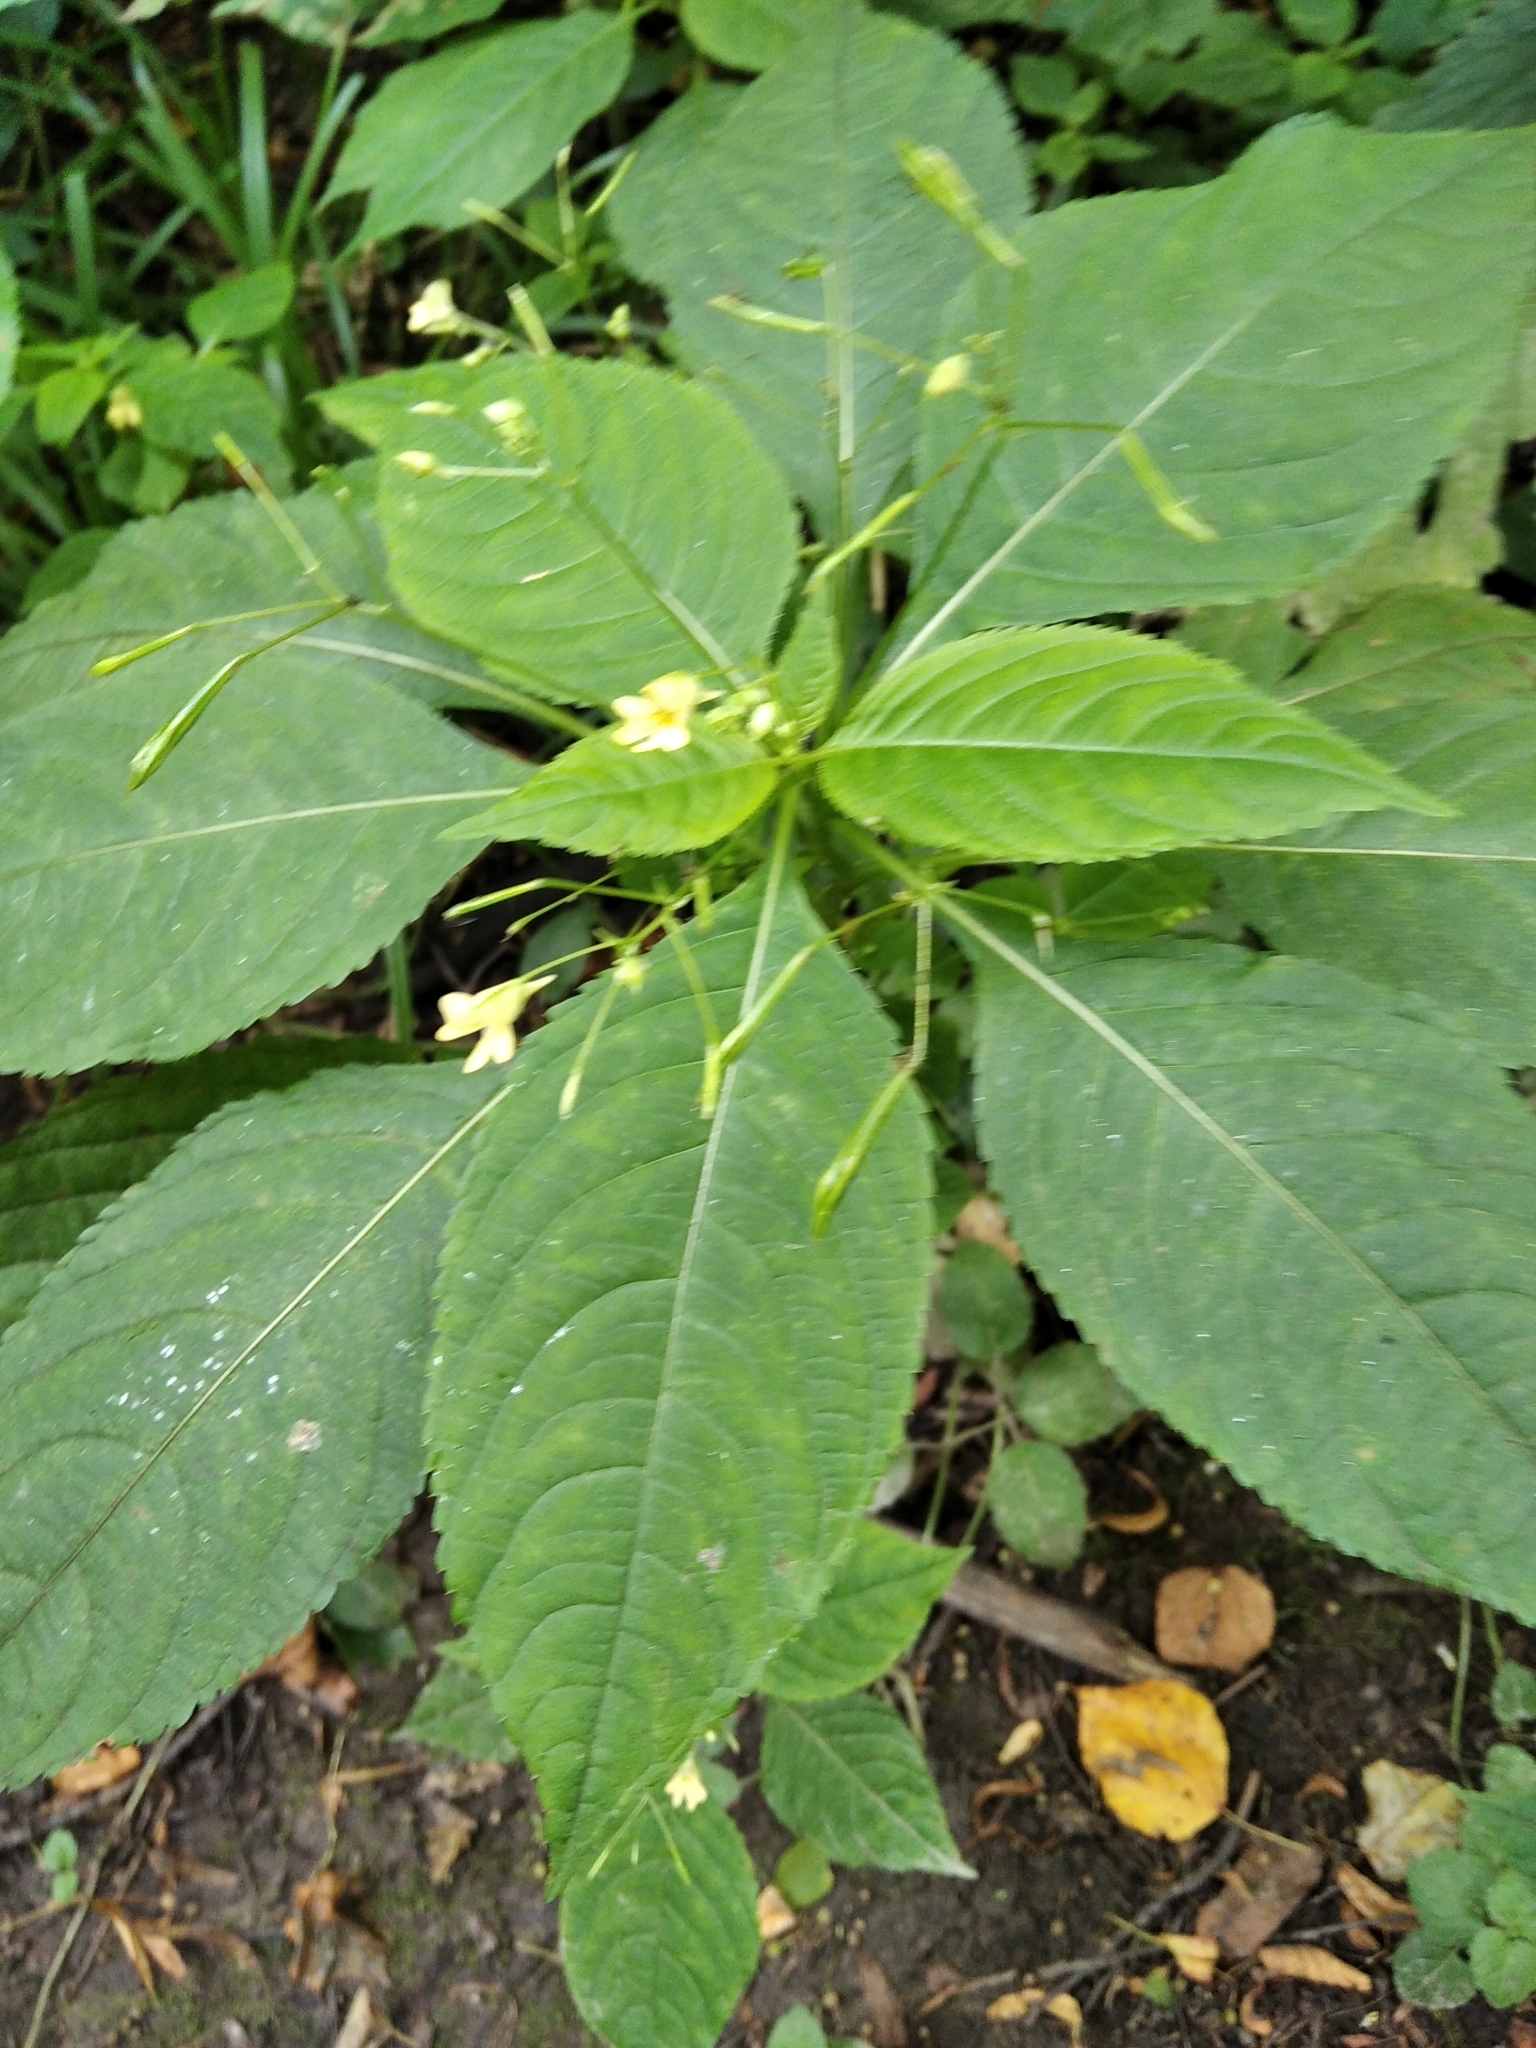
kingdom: Plantae
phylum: Tracheophyta
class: Magnoliopsida
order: Ericales
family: Balsaminaceae
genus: Impatiens
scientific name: Impatiens parviflora
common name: Small balsam
